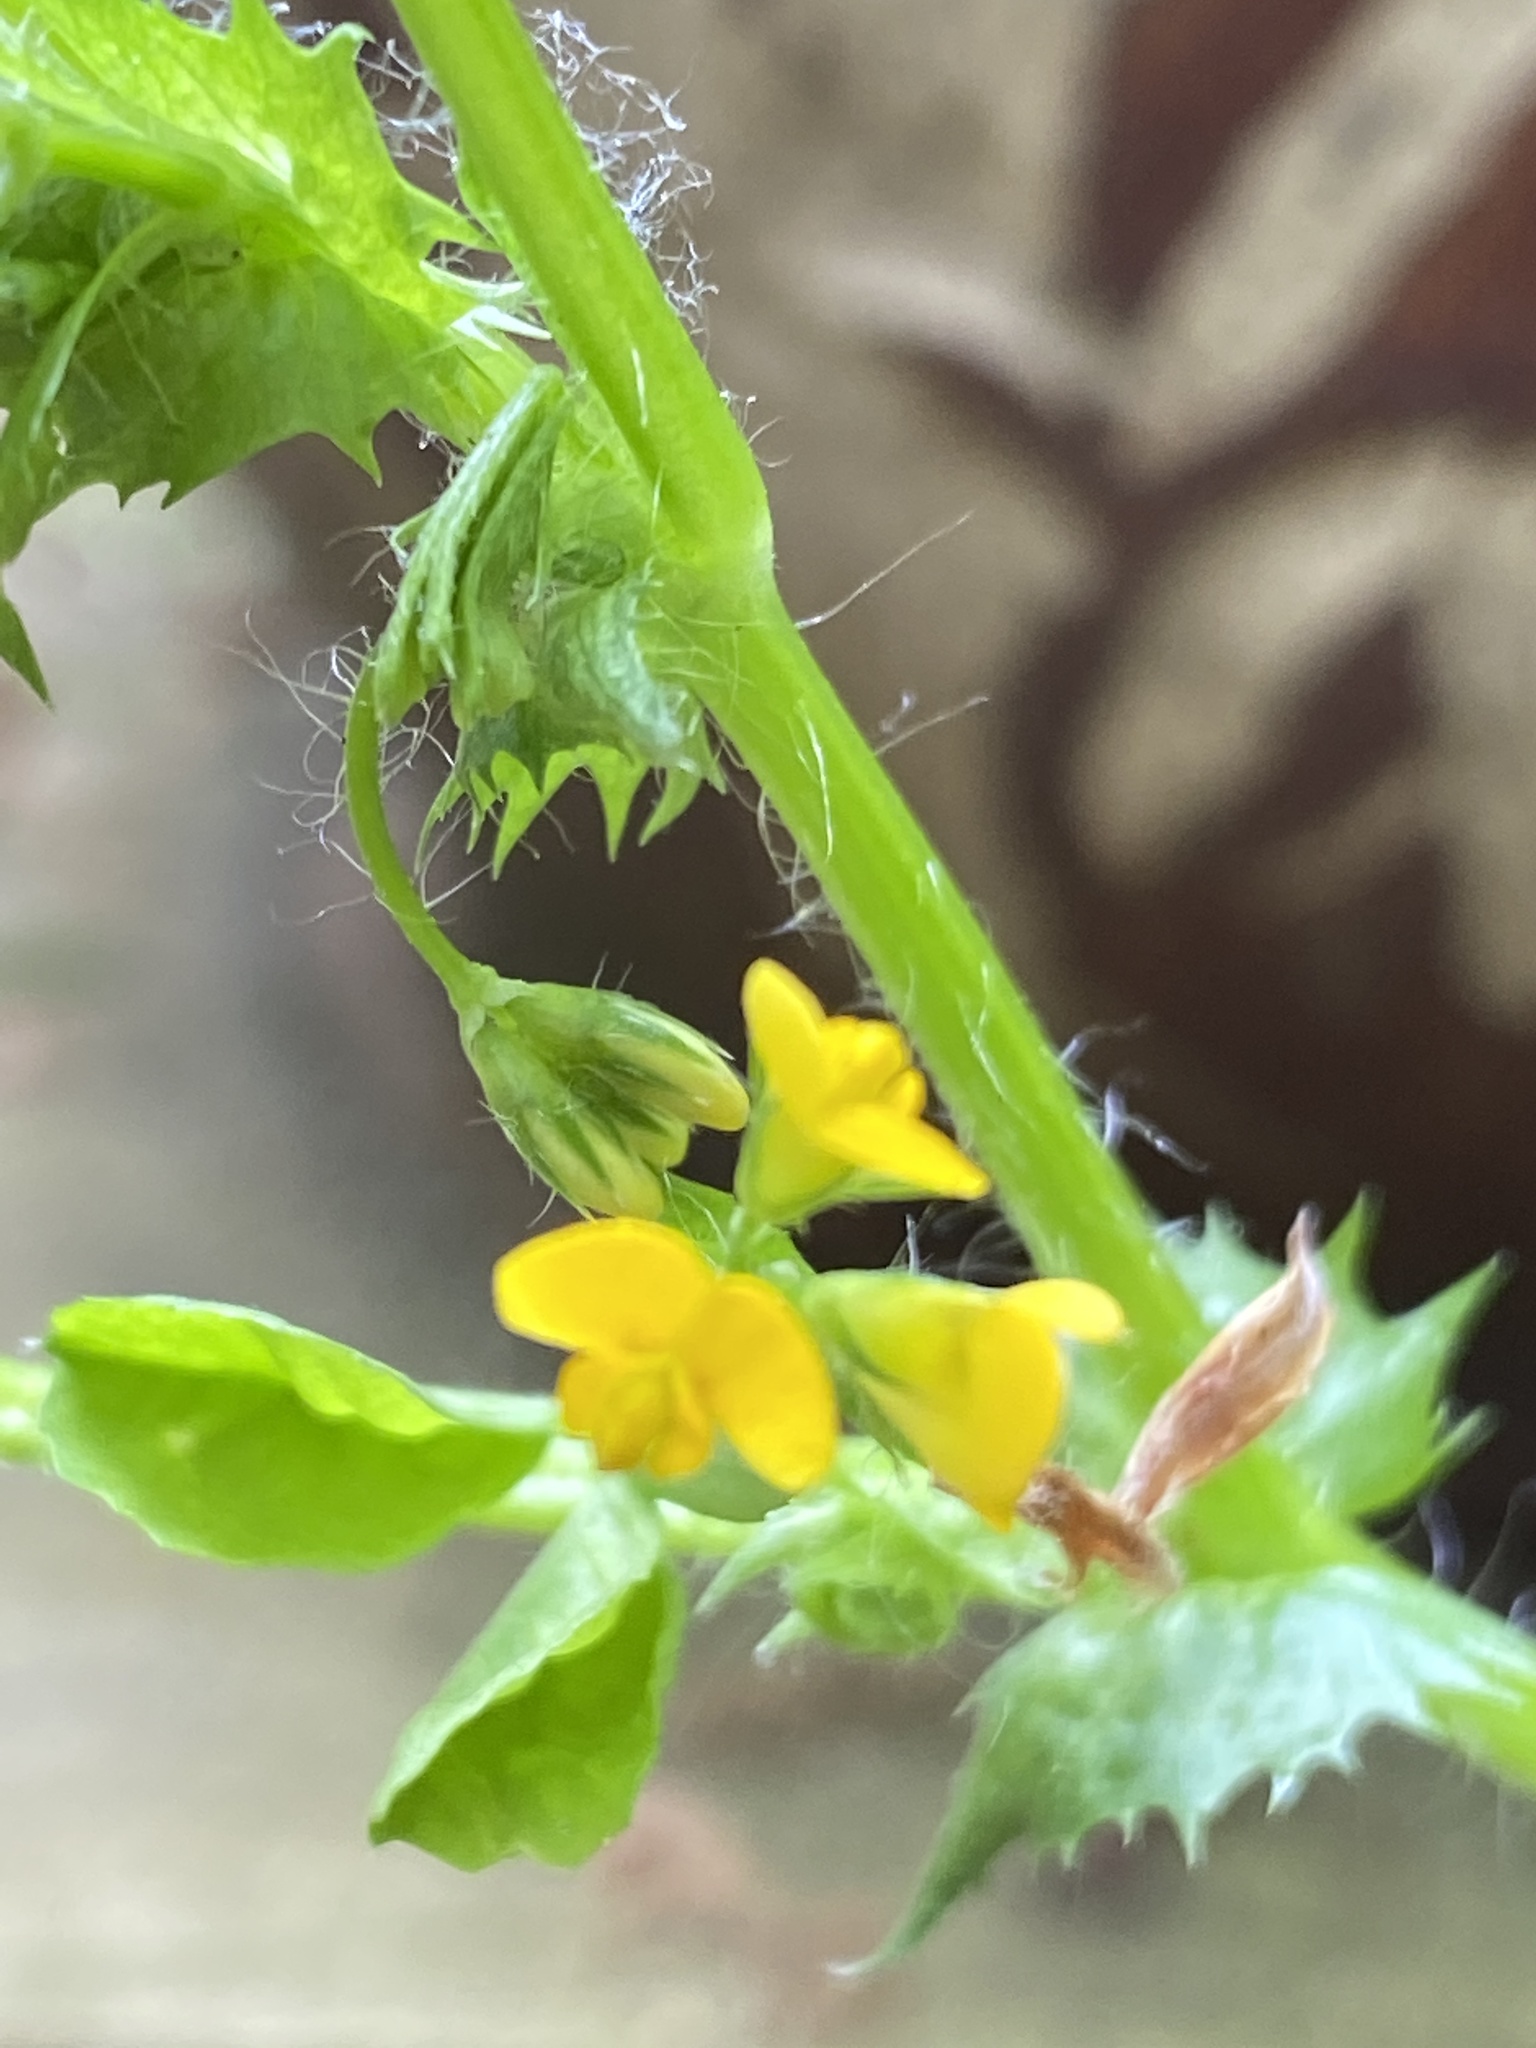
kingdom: Plantae
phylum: Tracheophyta
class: Magnoliopsida
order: Fabales
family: Fabaceae
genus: Medicago
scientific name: Medicago arabica
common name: Spotted medick
